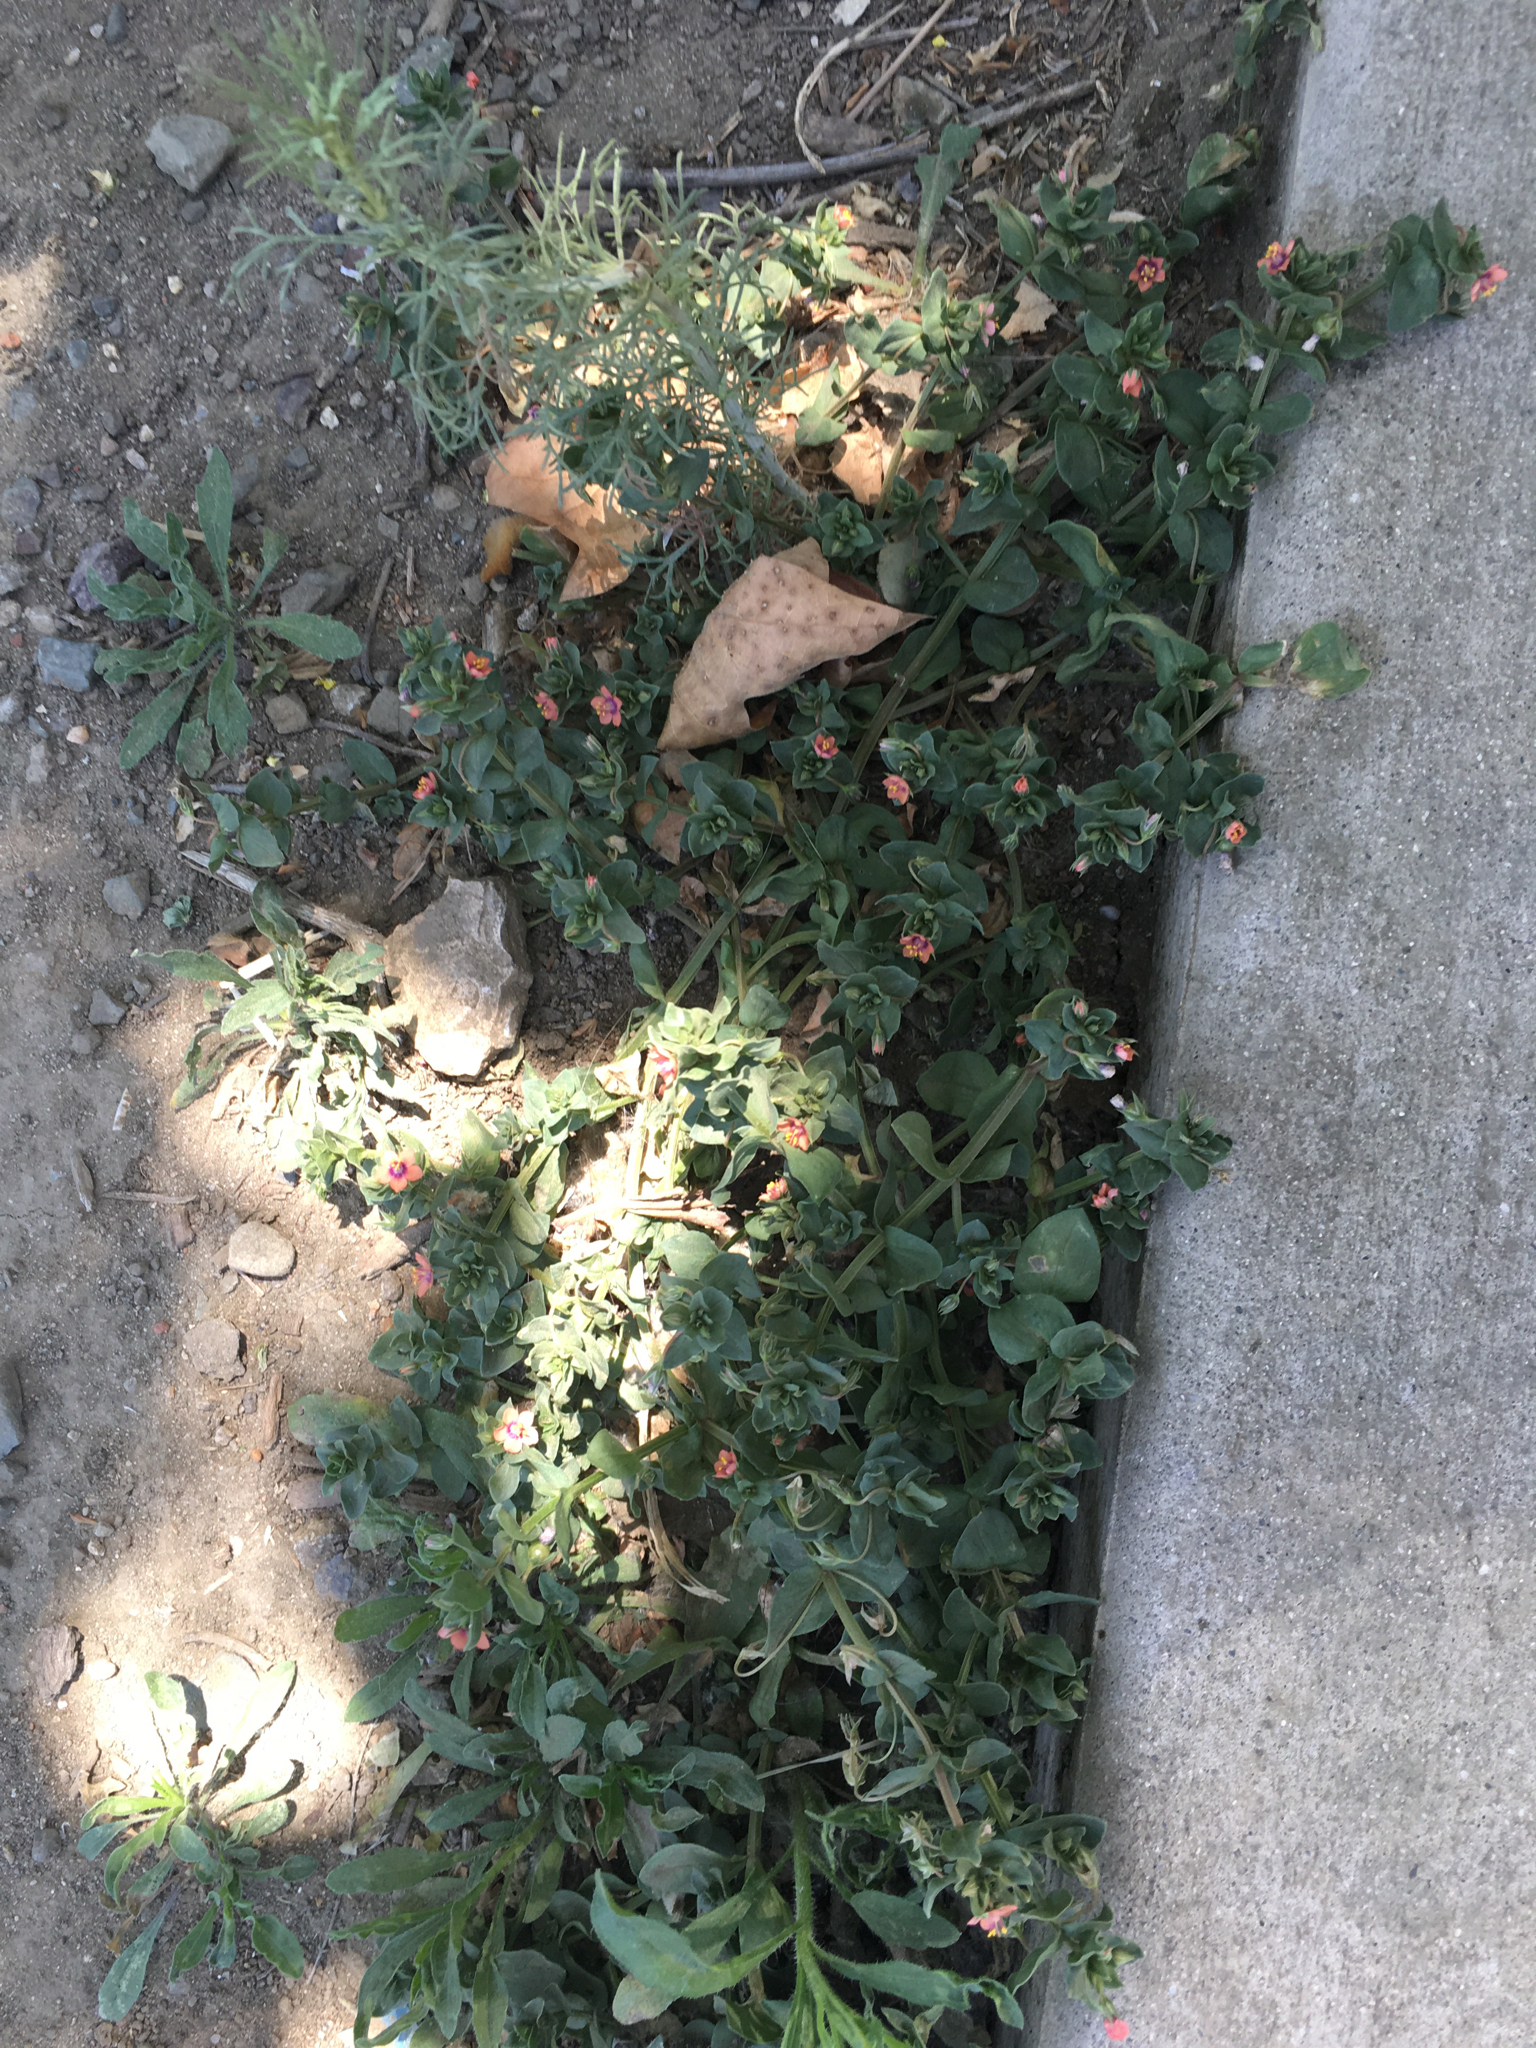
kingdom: Plantae
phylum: Tracheophyta
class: Magnoliopsida
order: Ericales
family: Primulaceae
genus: Lysimachia
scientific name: Lysimachia arvensis
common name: Scarlet pimpernel
